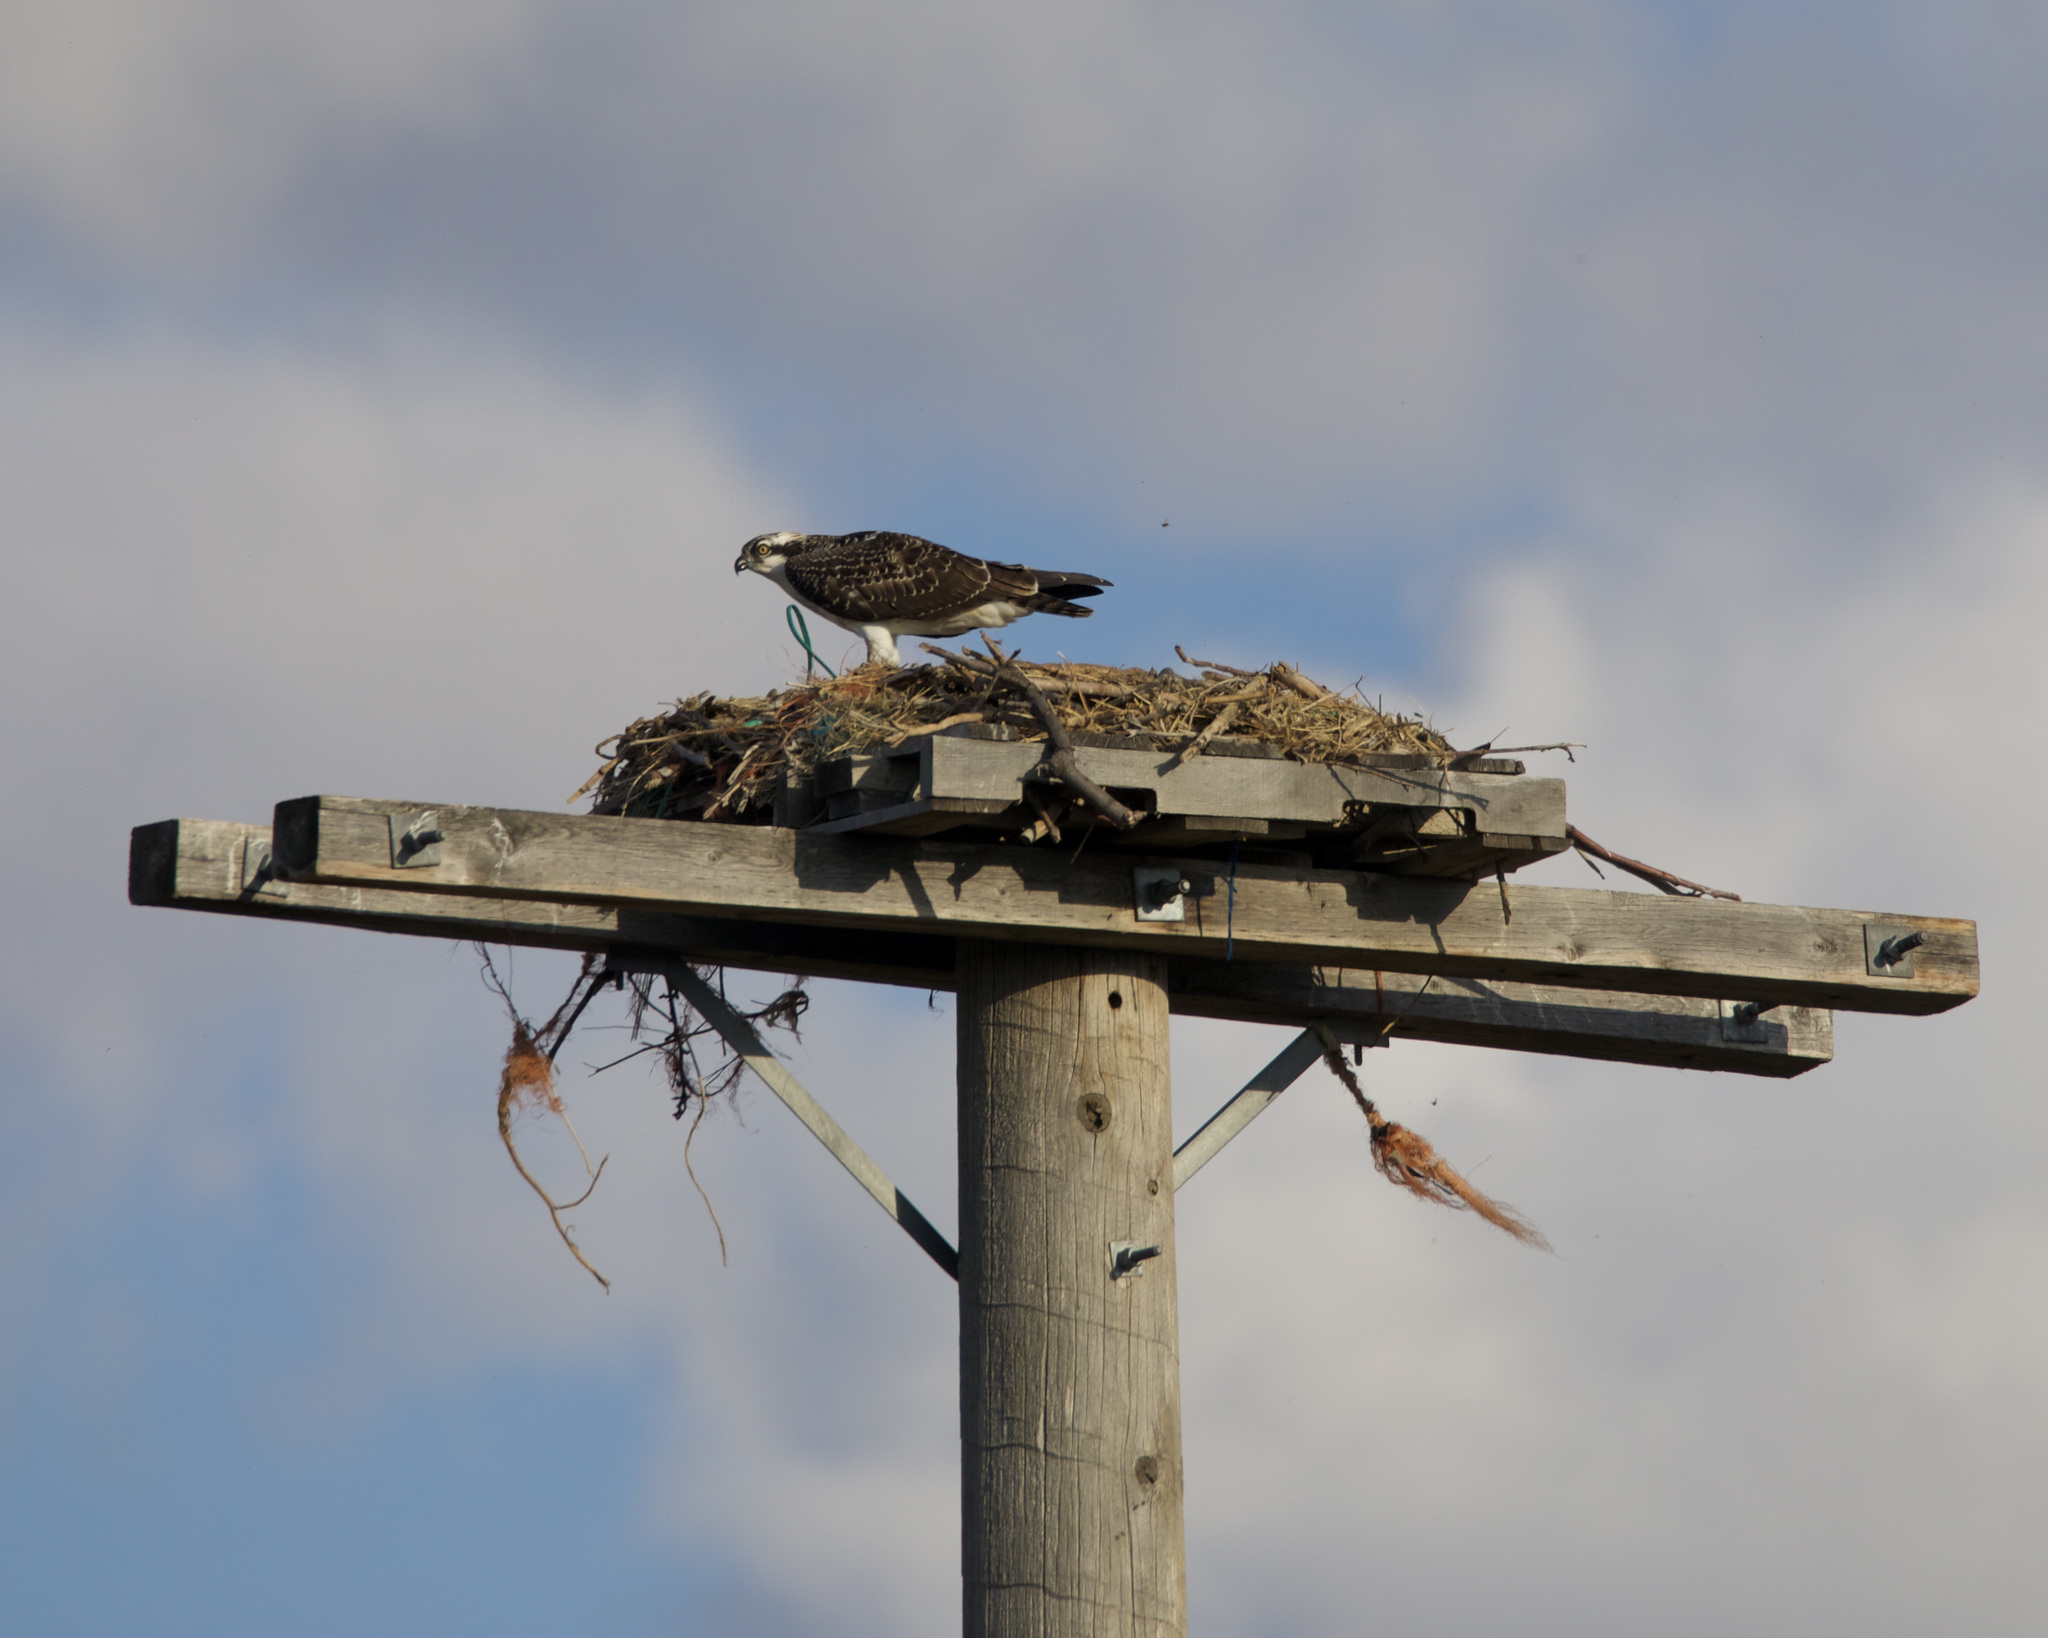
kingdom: Animalia
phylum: Chordata
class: Aves
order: Accipitriformes
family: Pandionidae
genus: Pandion
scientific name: Pandion haliaetus
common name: Osprey
